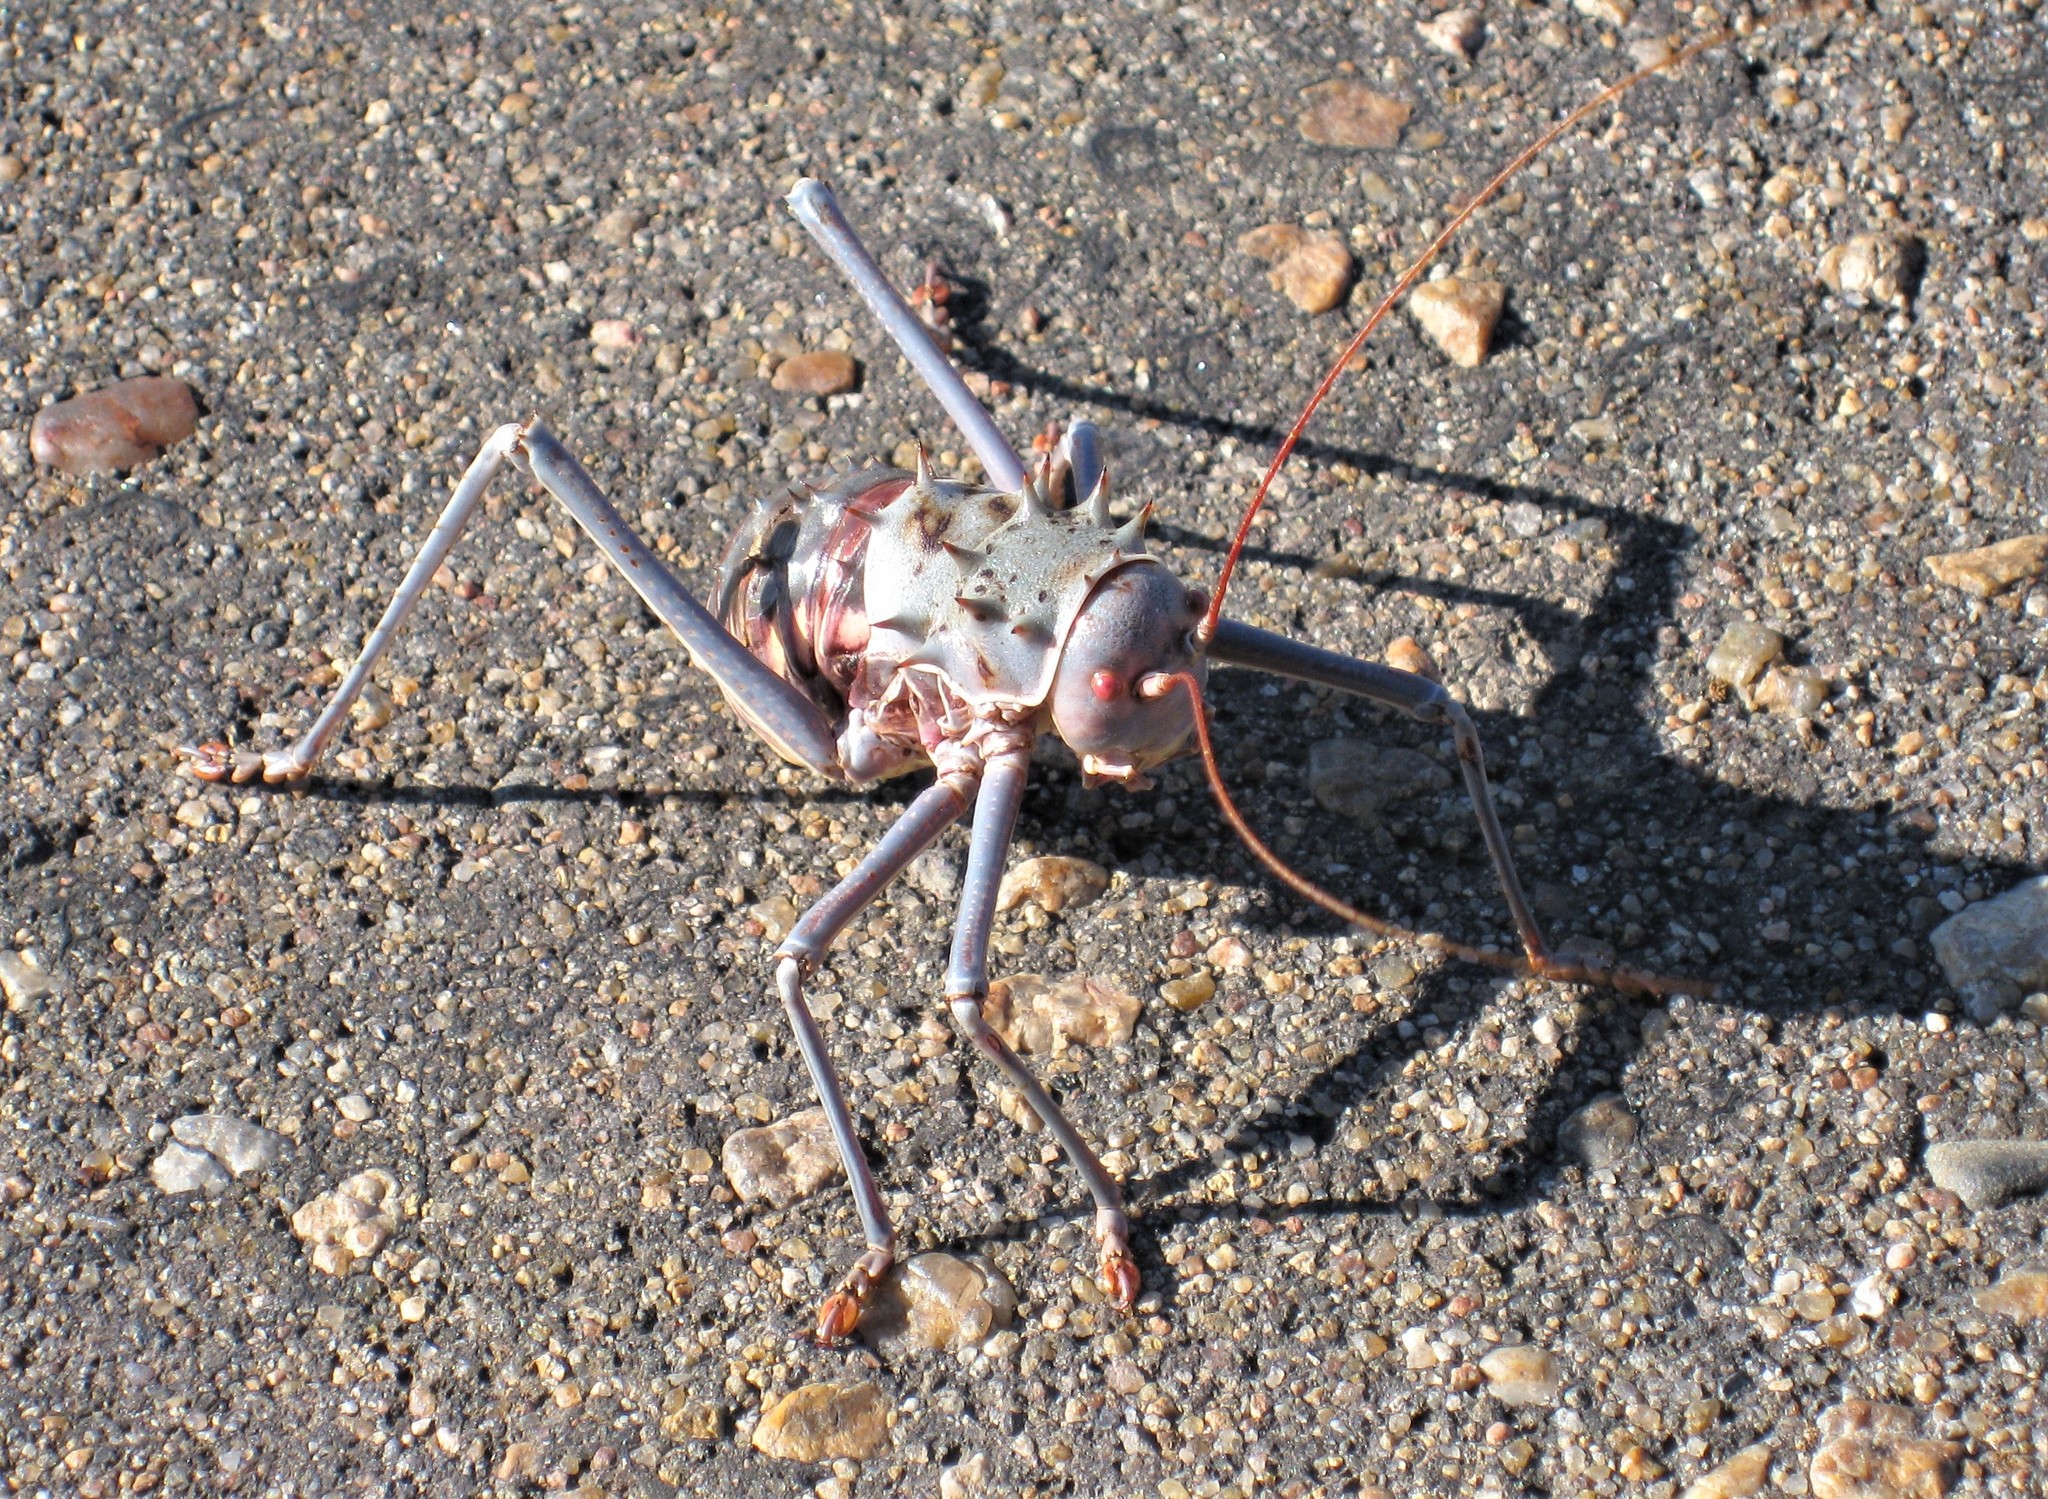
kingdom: Animalia
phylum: Arthropoda
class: Insecta
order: Orthoptera
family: Tettigoniidae
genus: Acanthoplus
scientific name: Acanthoplus discoidalis
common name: Armoured katydid
